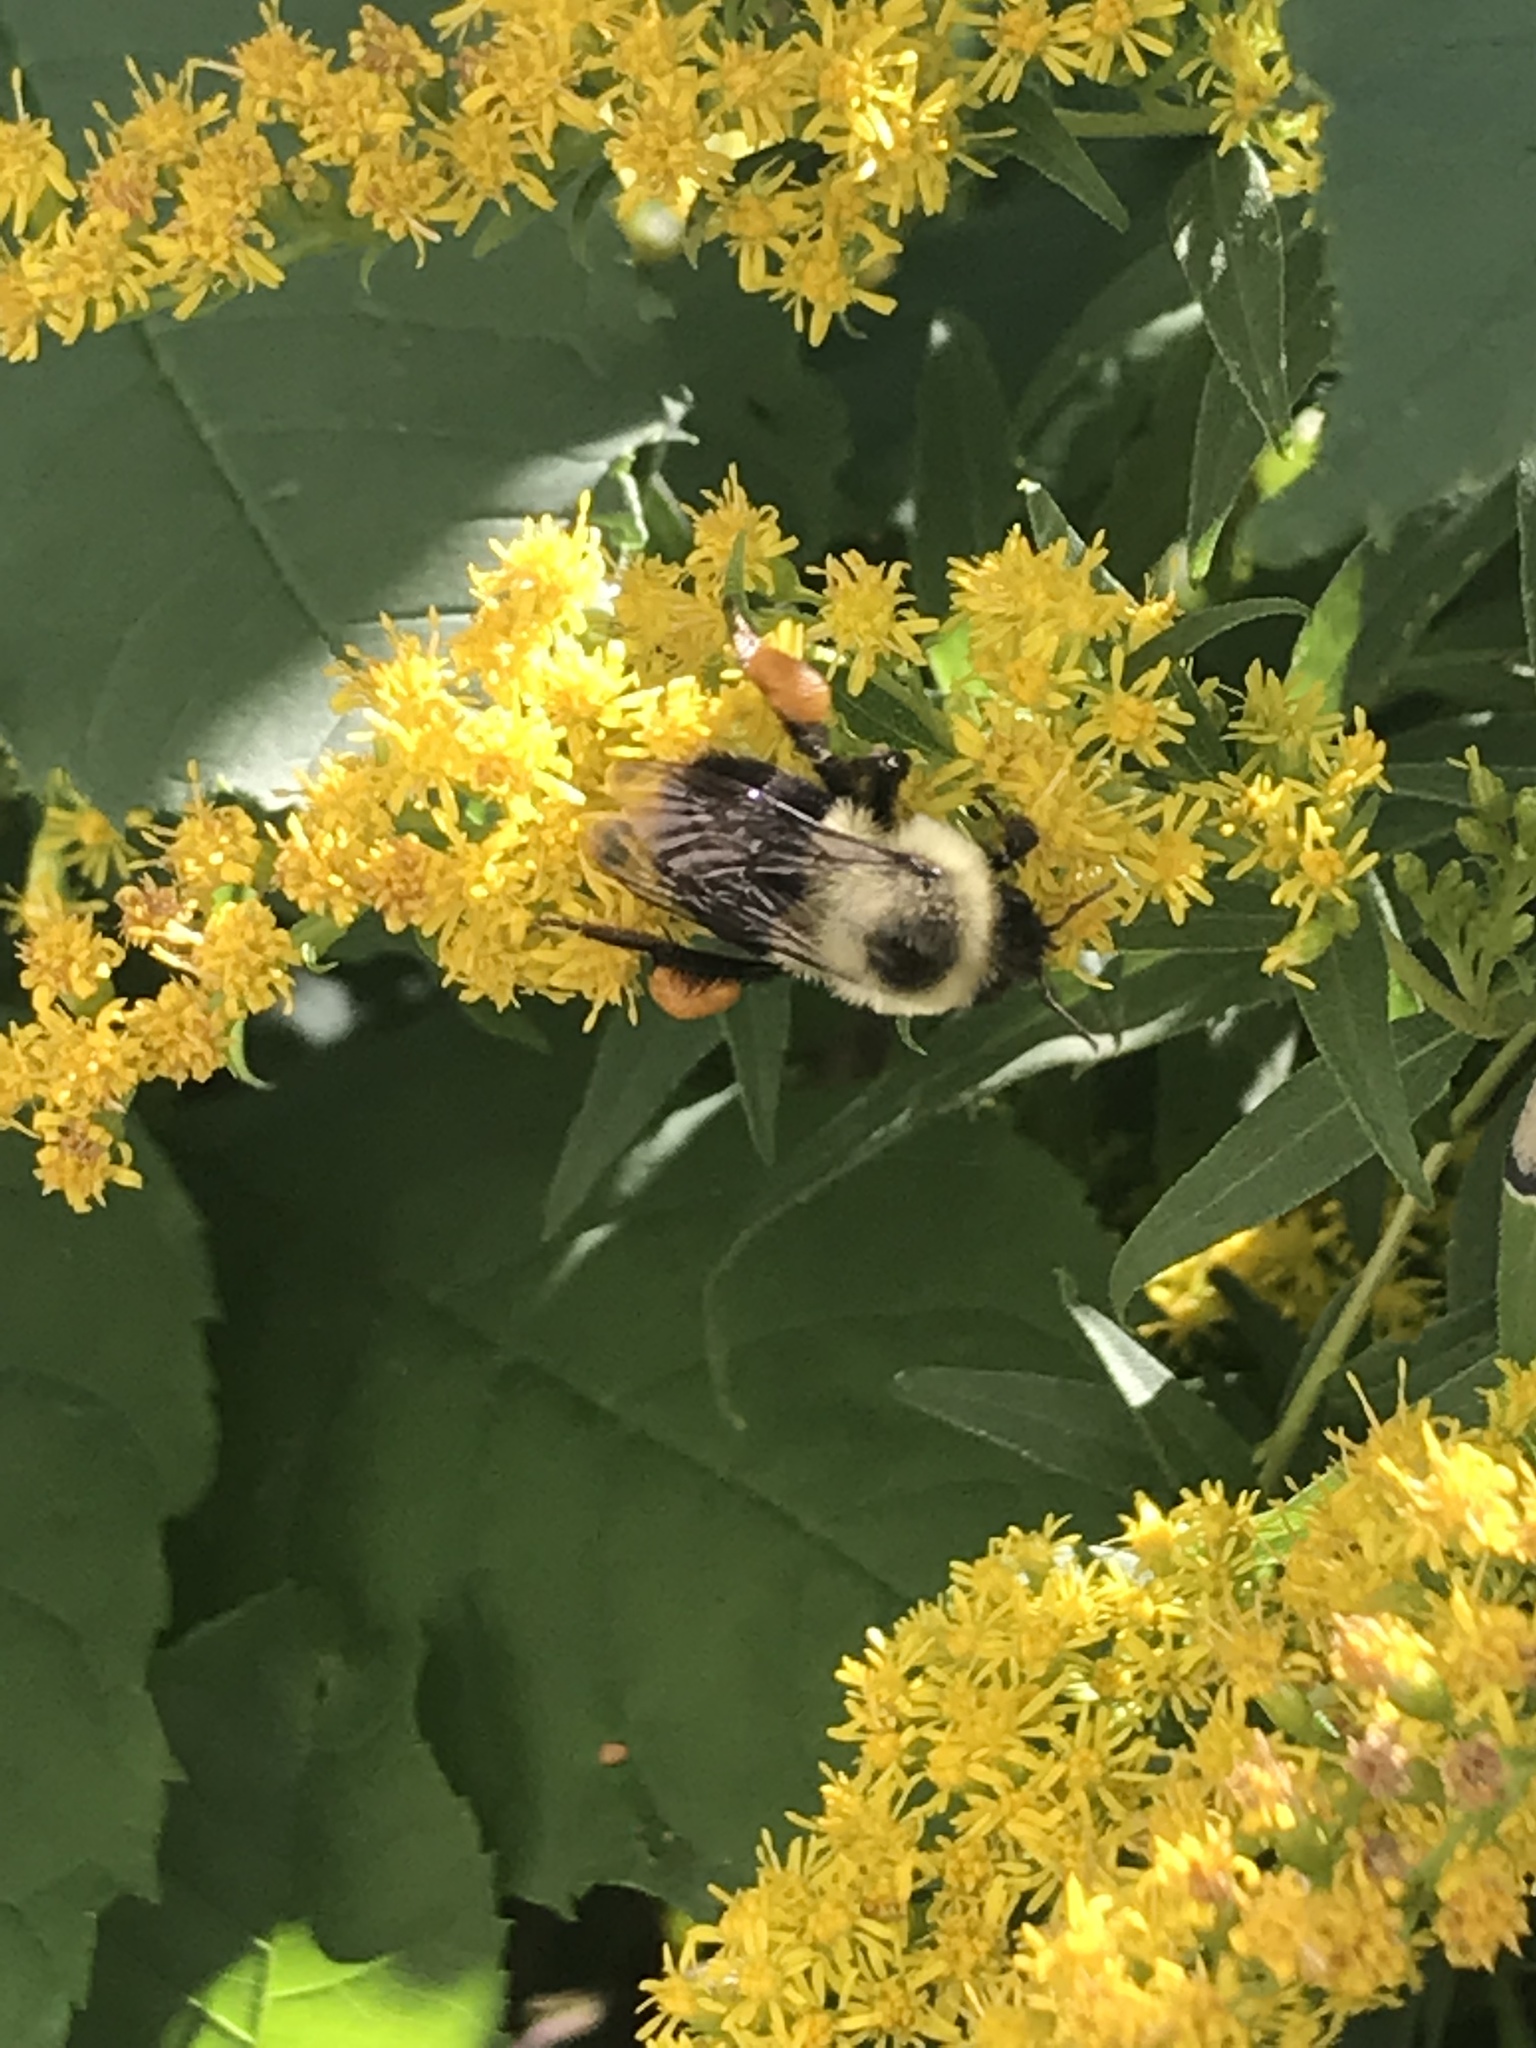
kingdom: Animalia
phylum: Arthropoda
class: Insecta
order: Hymenoptera
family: Apidae
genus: Bombus
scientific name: Bombus impatiens
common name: Common eastern bumble bee
